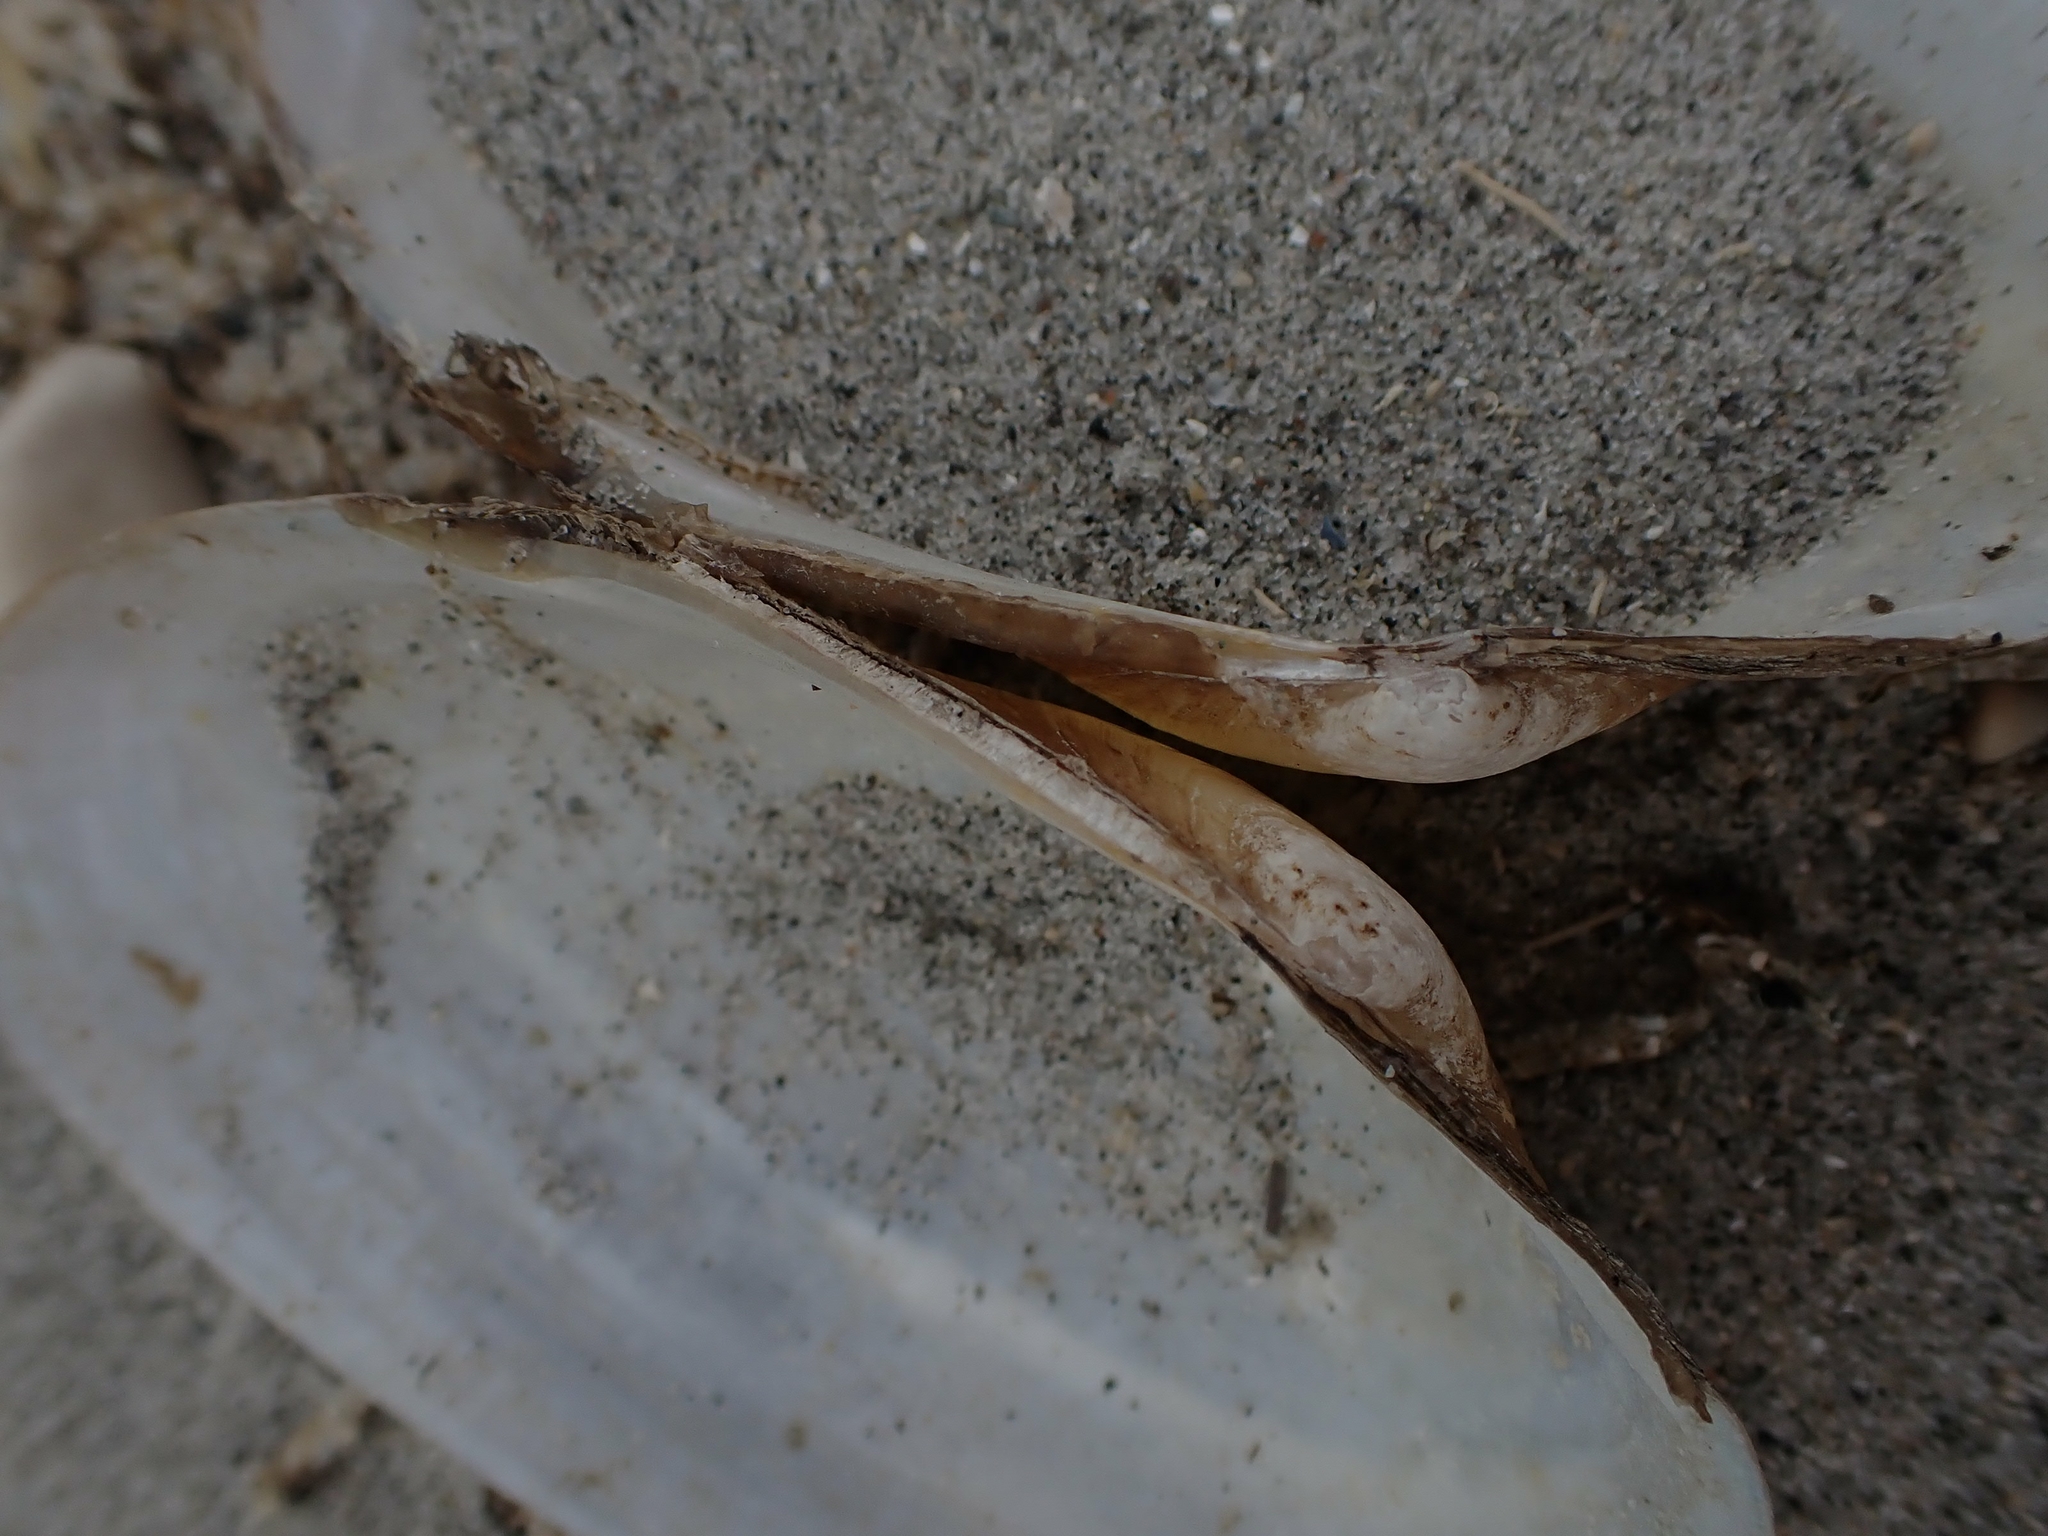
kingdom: Animalia
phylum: Mollusca
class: Bivalvia
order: Unionida
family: Unionidae
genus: Pyganodon
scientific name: Pyganodon grandis
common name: Giant floater
